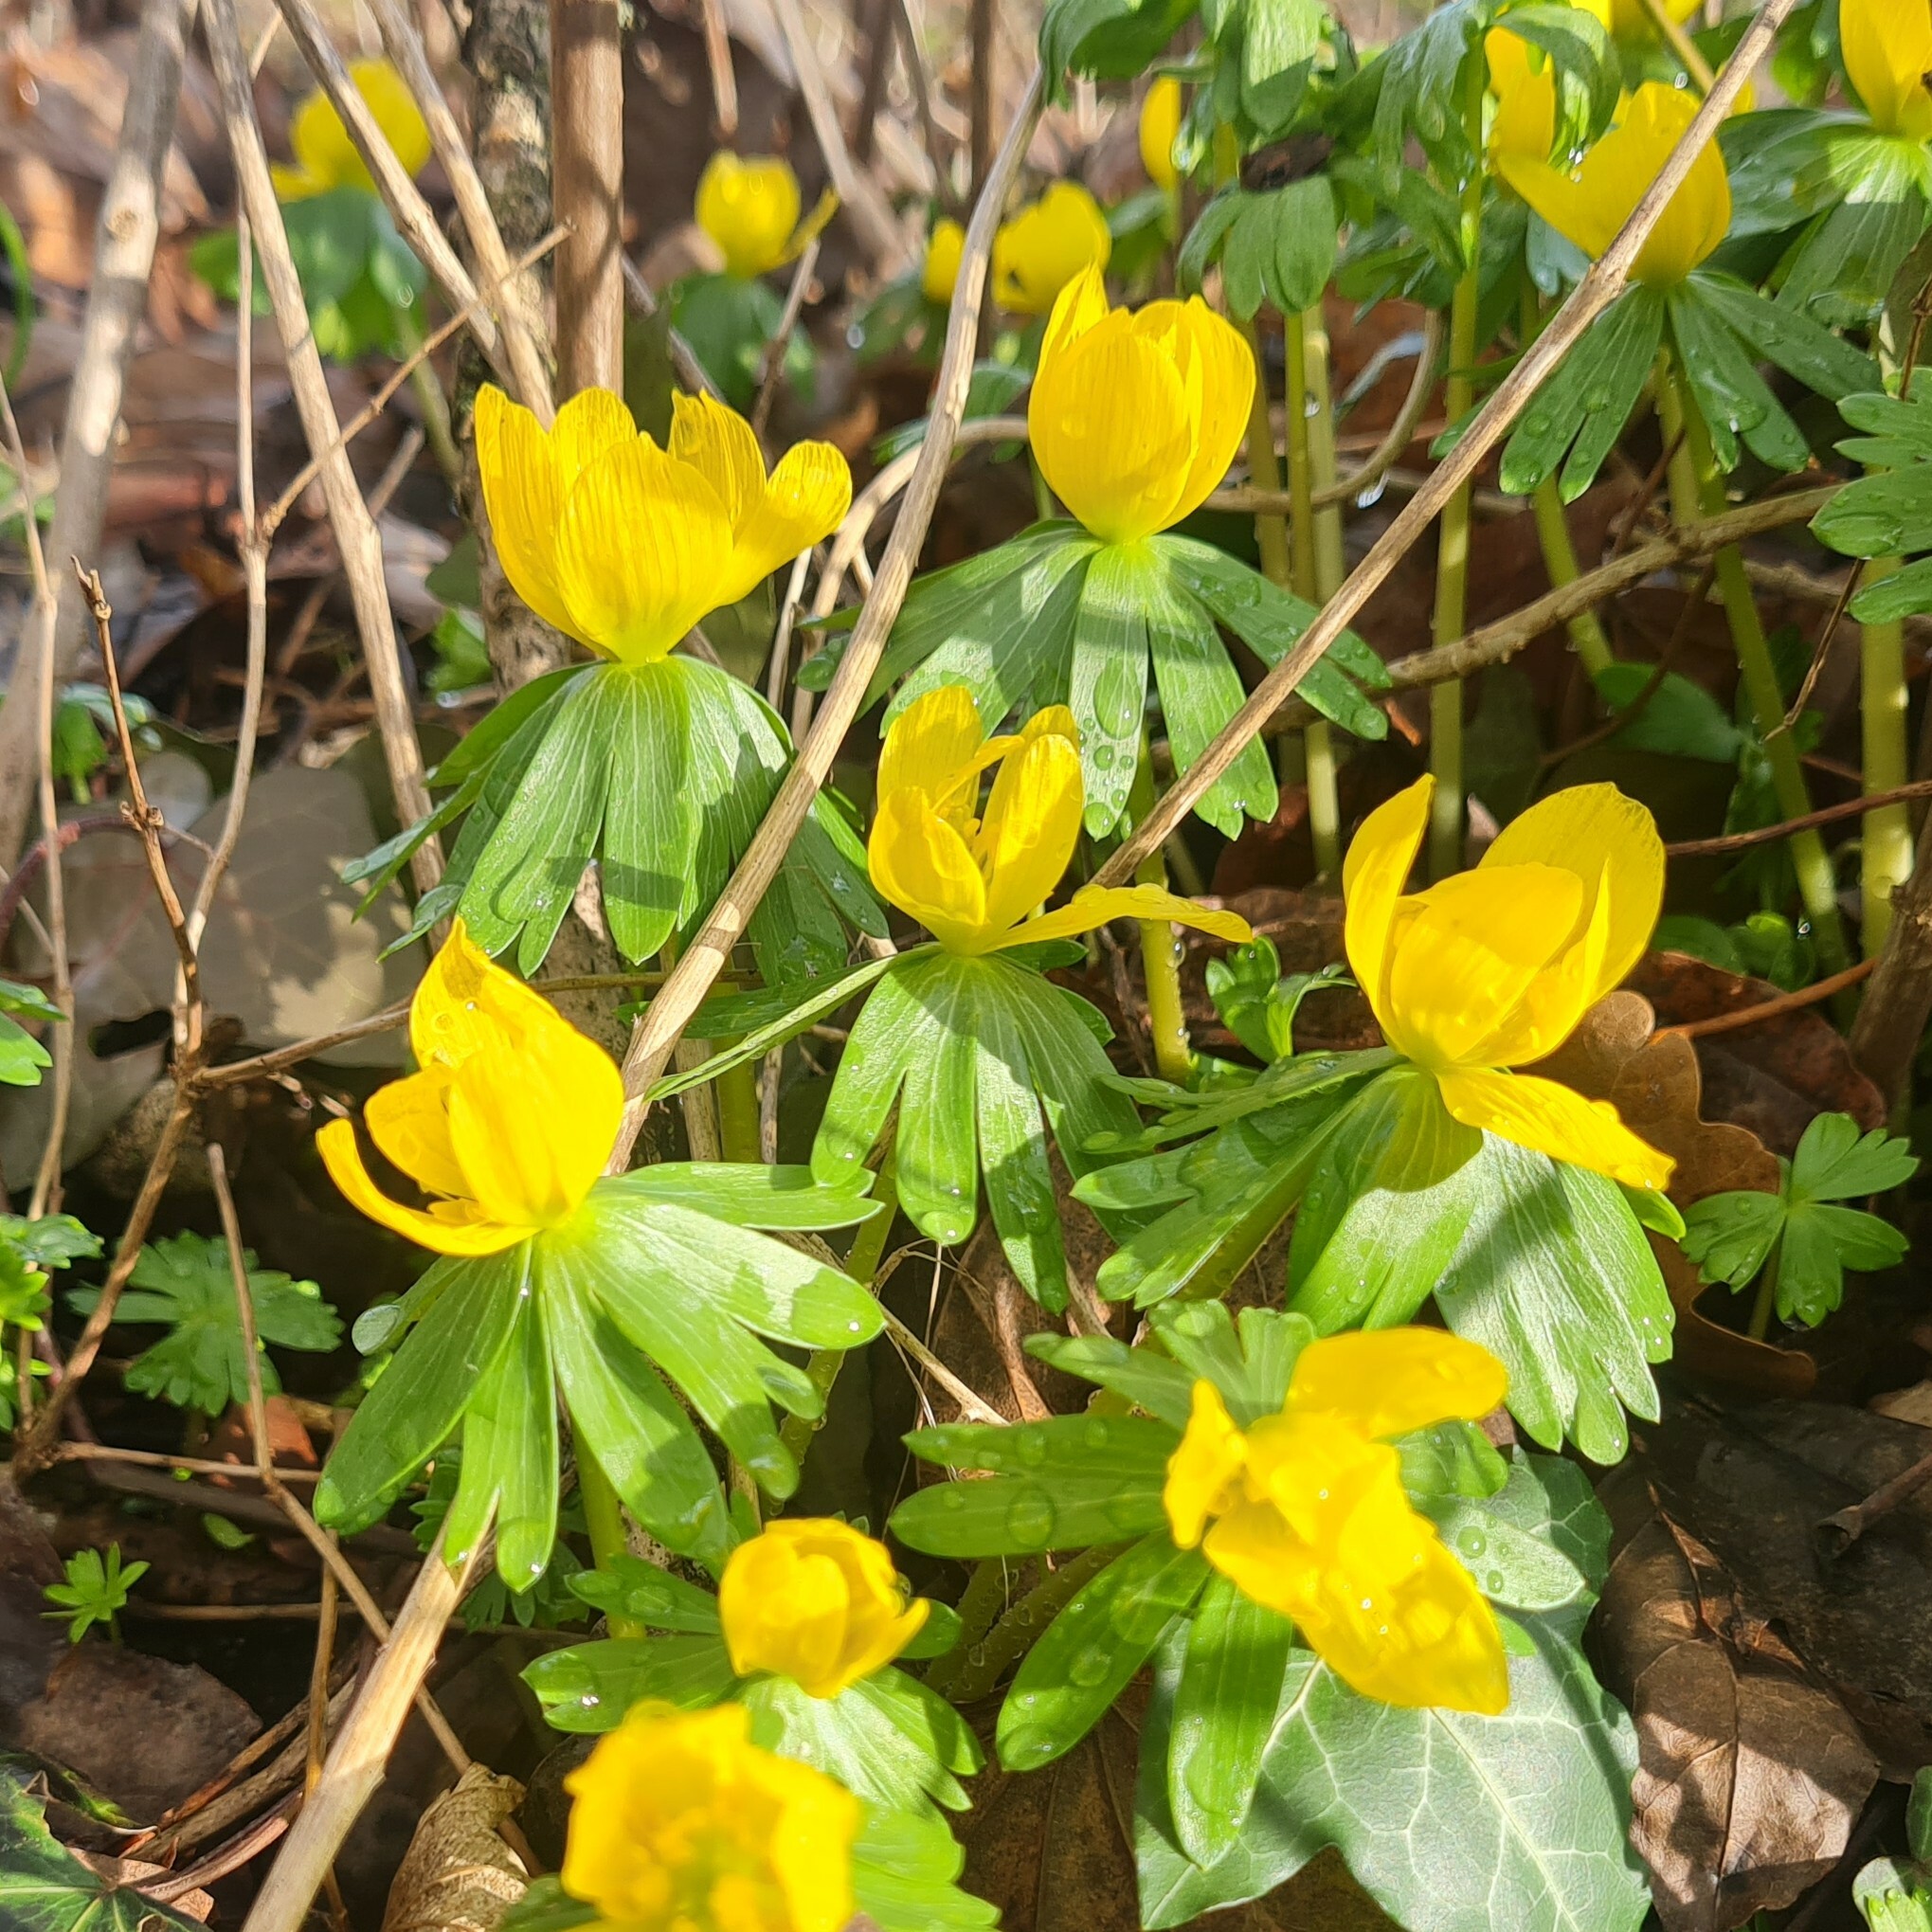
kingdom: Plantae
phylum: Tracheophyta
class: Magnoliopsida
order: Ranunculales
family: Ranunculaceae
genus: Eranthis
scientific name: Eranthis hyemalis
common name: Winter aconite
